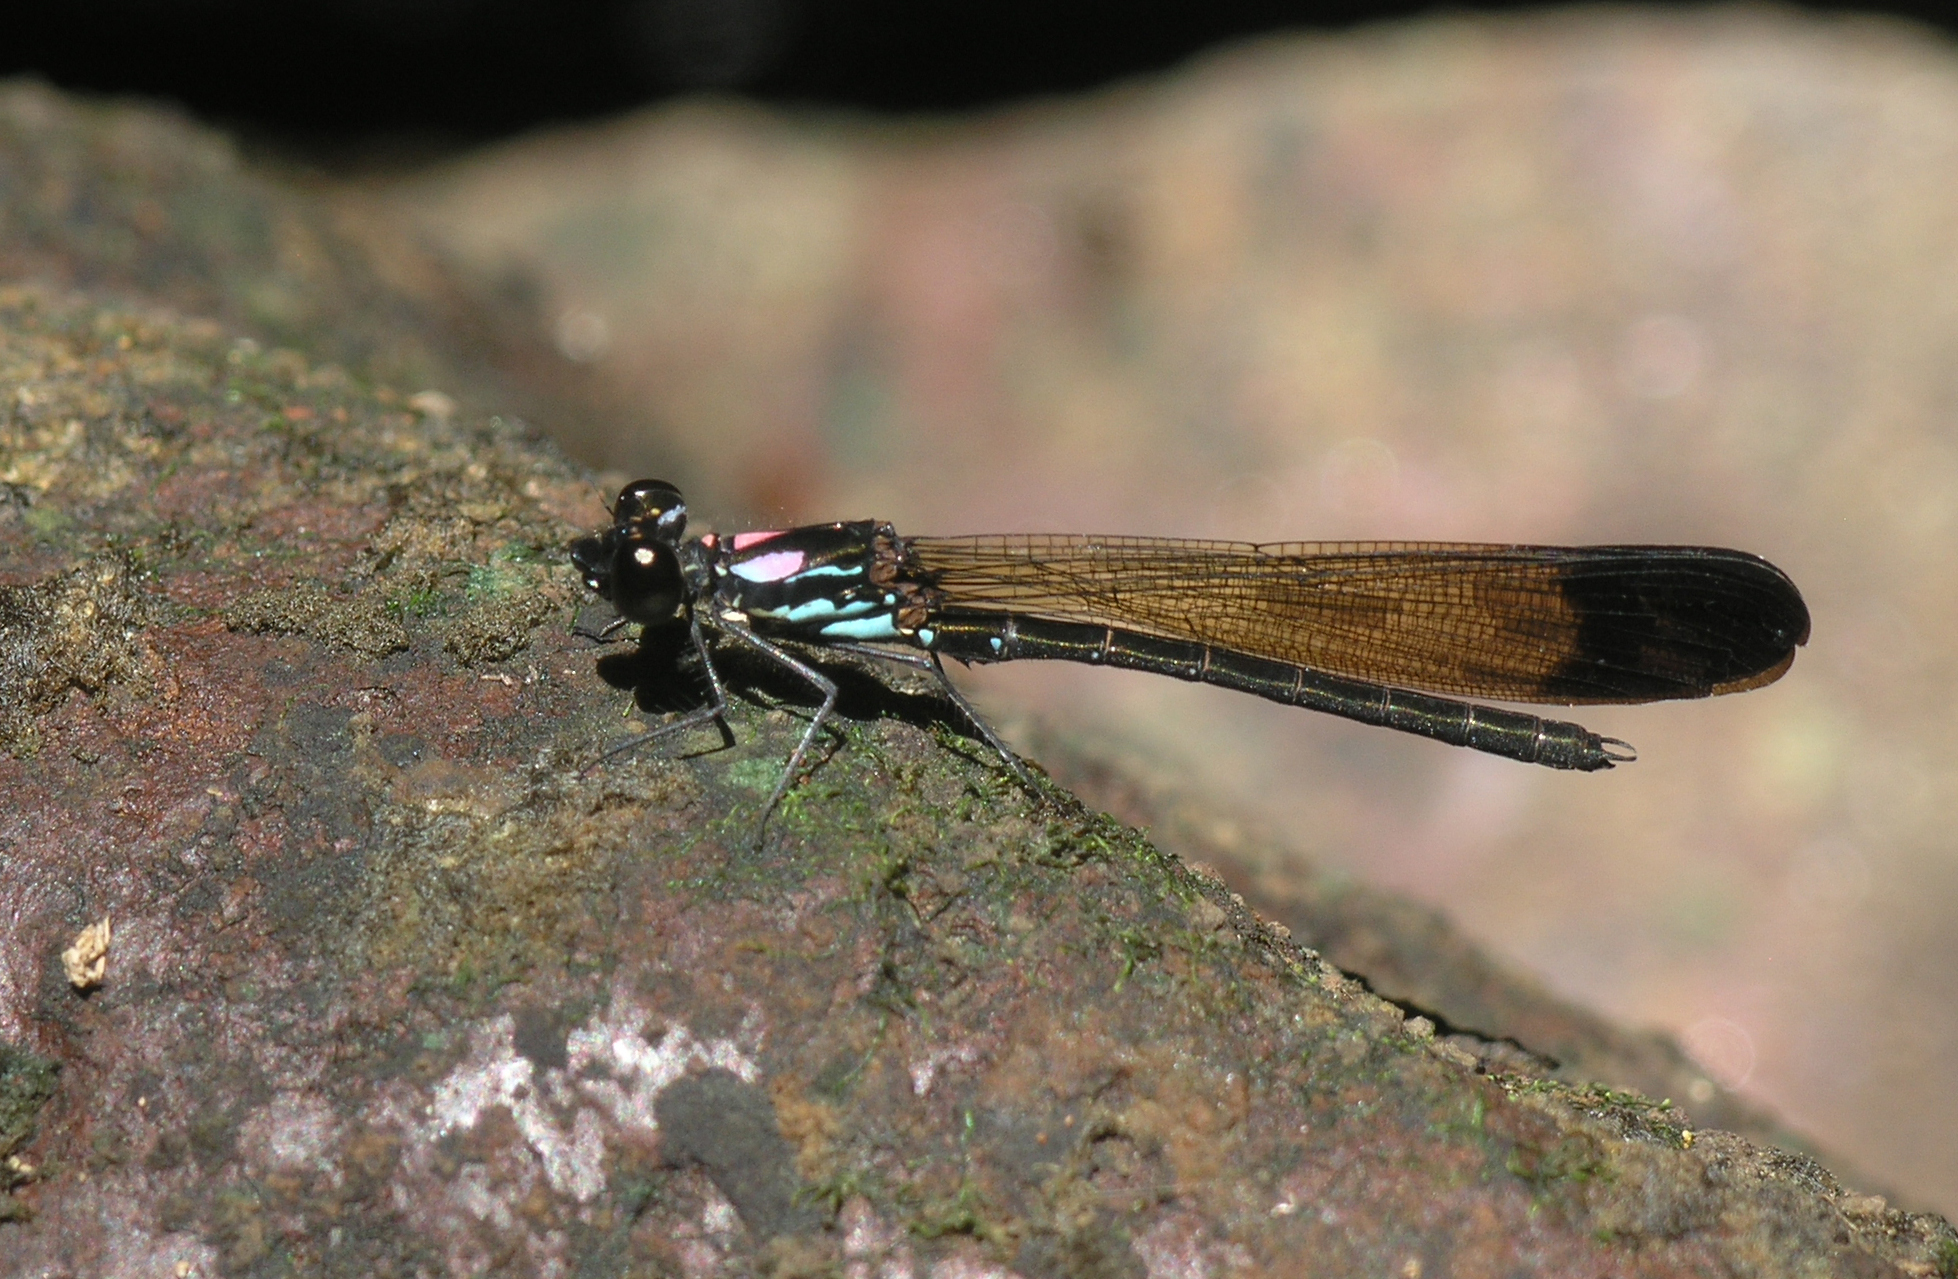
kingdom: Animalia
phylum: Arthropoda
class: Insecta
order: Odonata
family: Chlorocyphidae
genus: Heliocypha
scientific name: Heliocypha biforata
